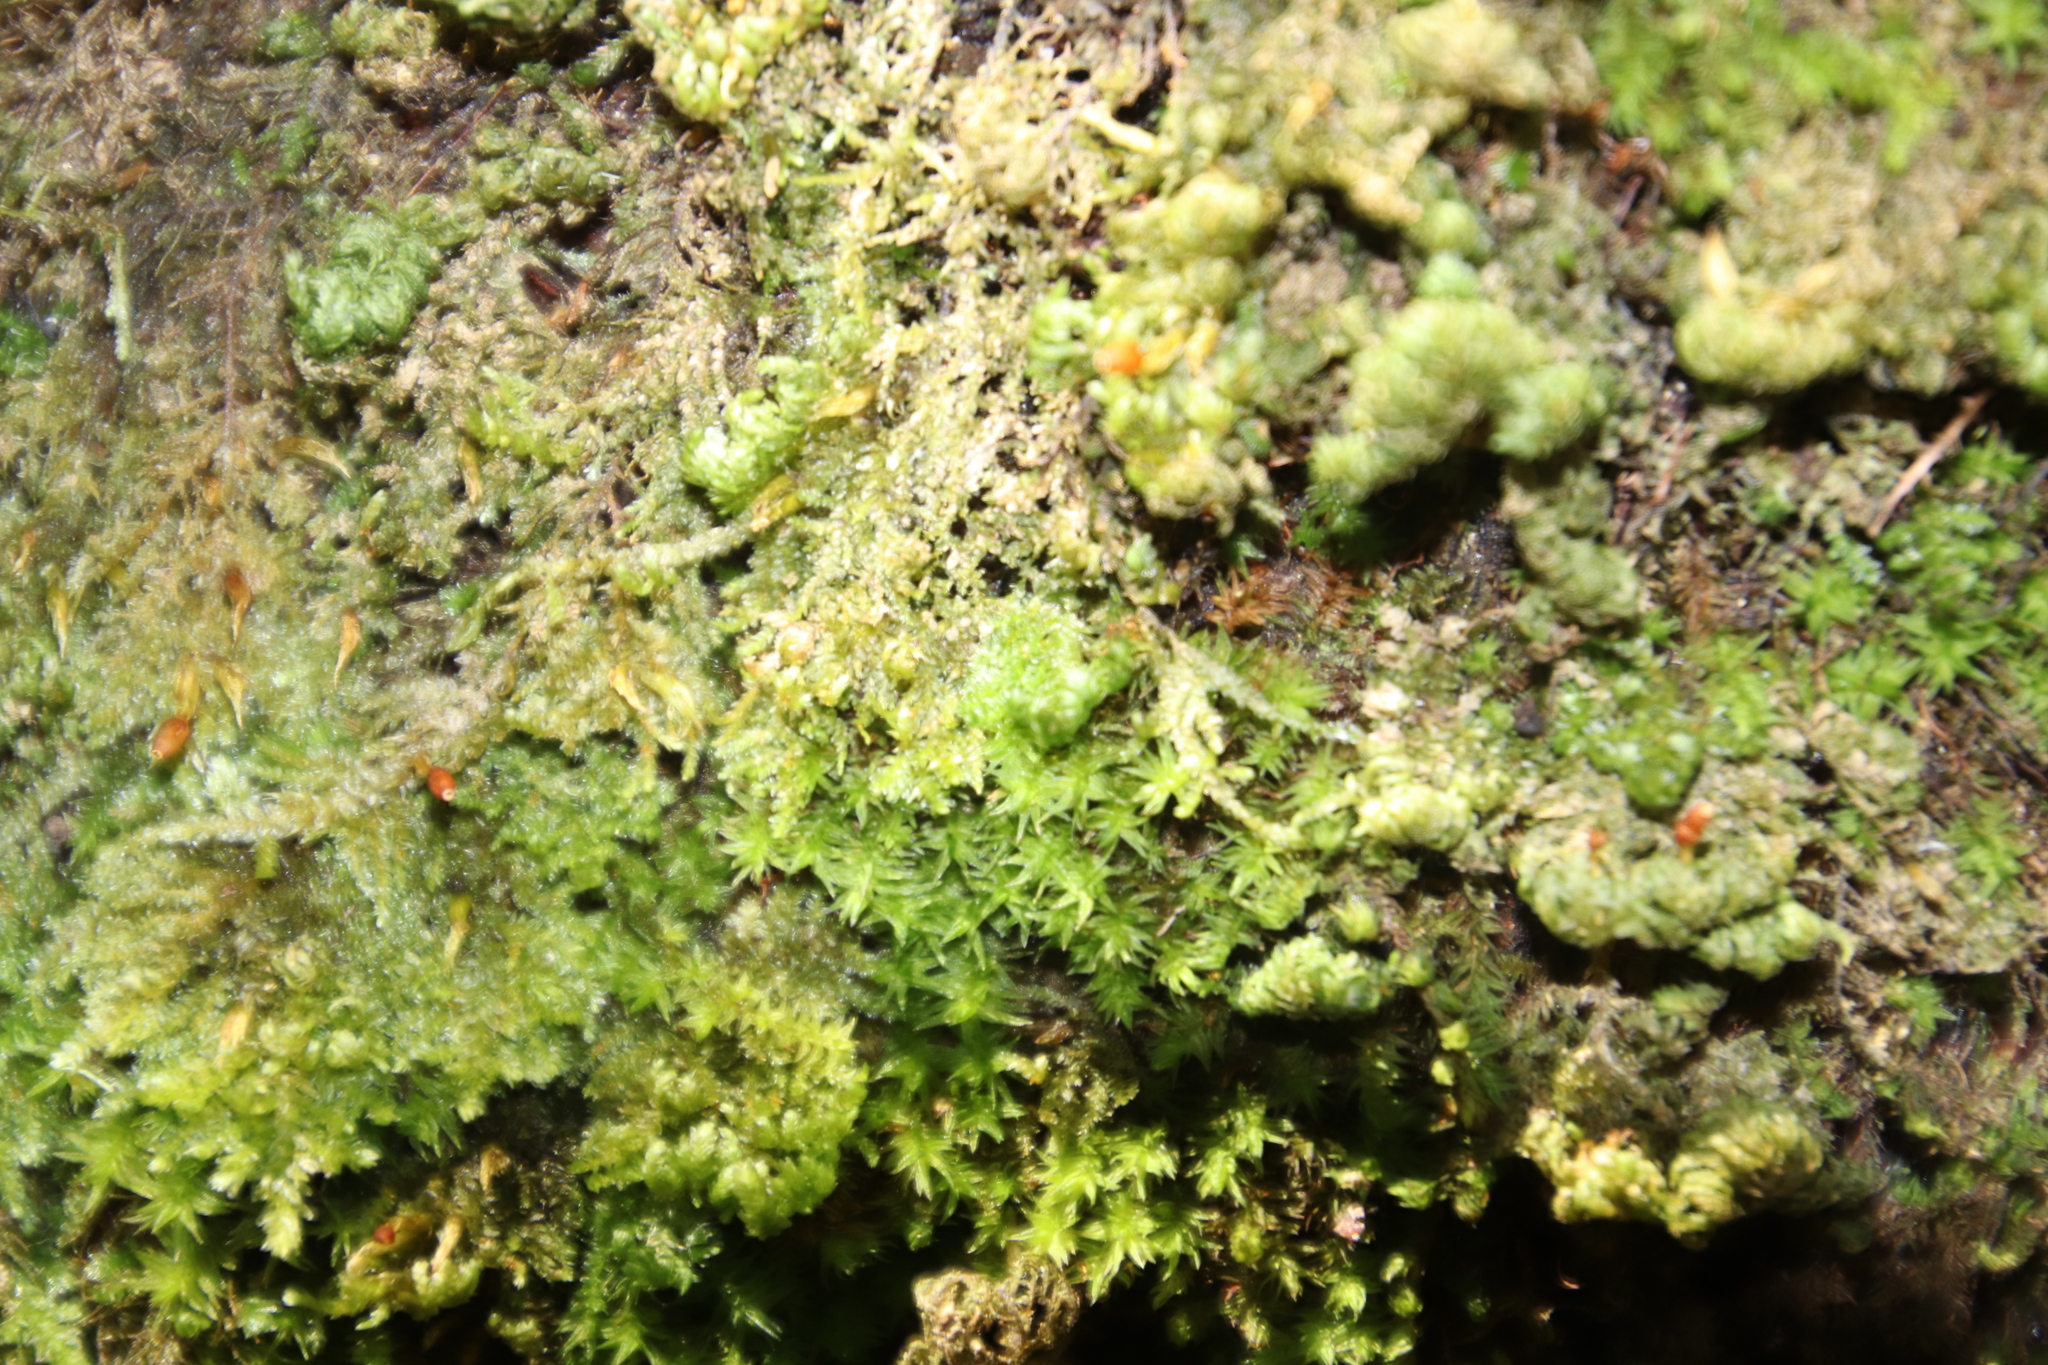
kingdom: Plantae
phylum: Bryophyta
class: Bryopsida
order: Hypnales
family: Neckeraceae
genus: Leptodon
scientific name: Leptodon smithii
